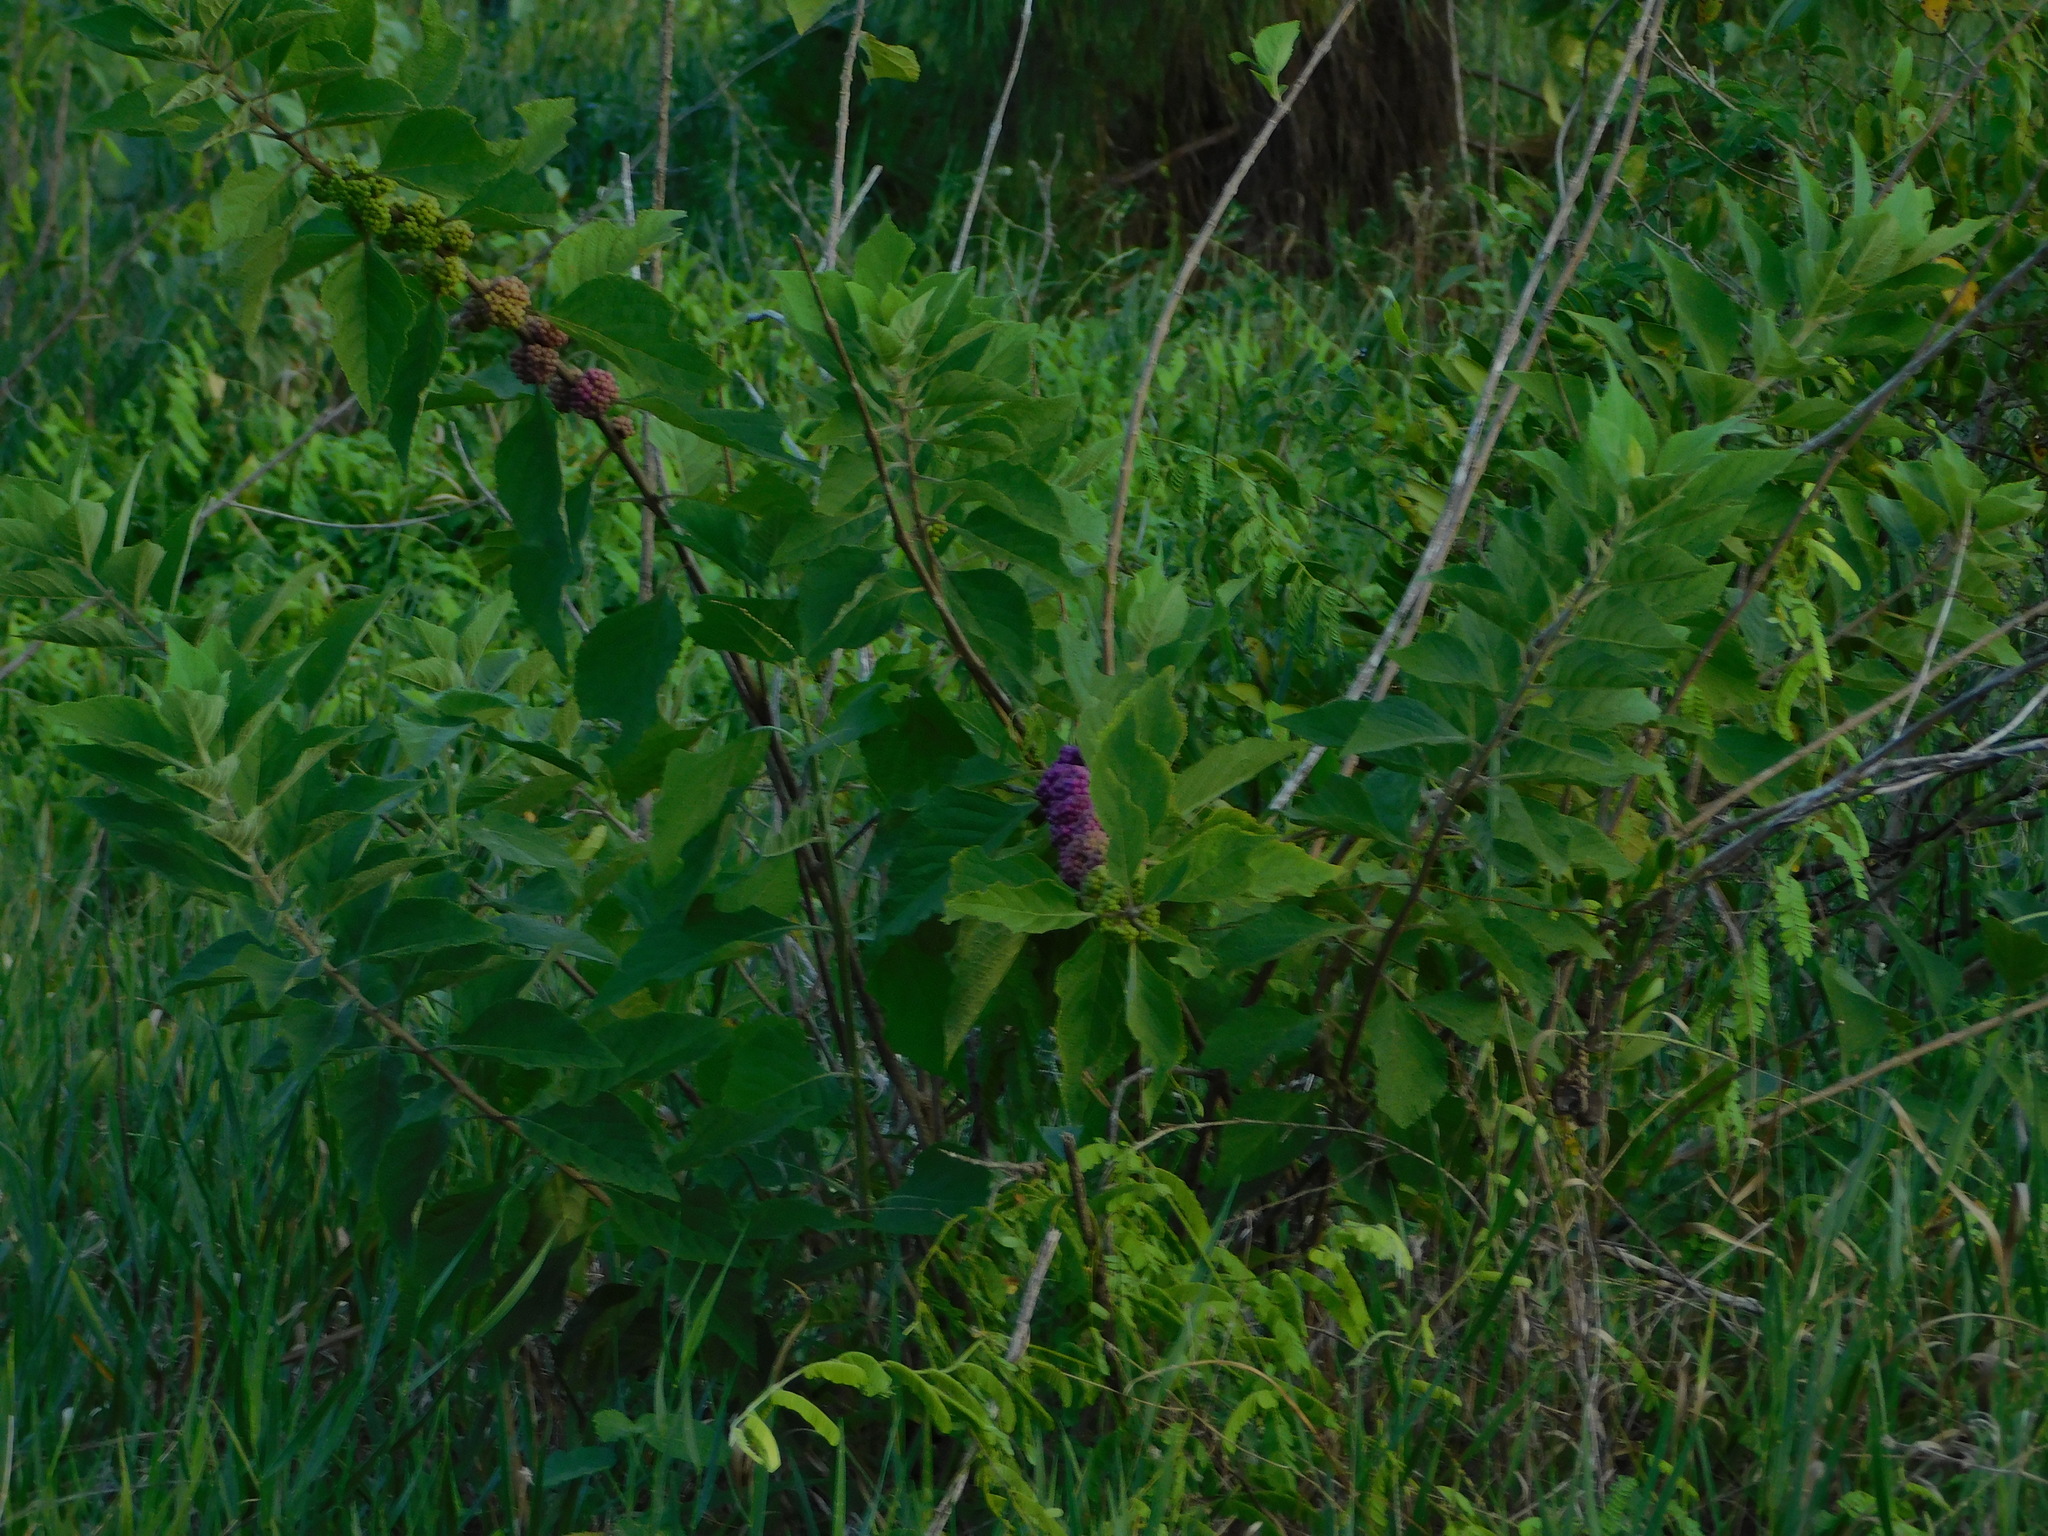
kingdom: Plantae
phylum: Tracheophyta
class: Magnoliopsida
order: Lamiales
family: Lamiaceae
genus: Callicarpa
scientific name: Callicarpa americana
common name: American beautyberry
